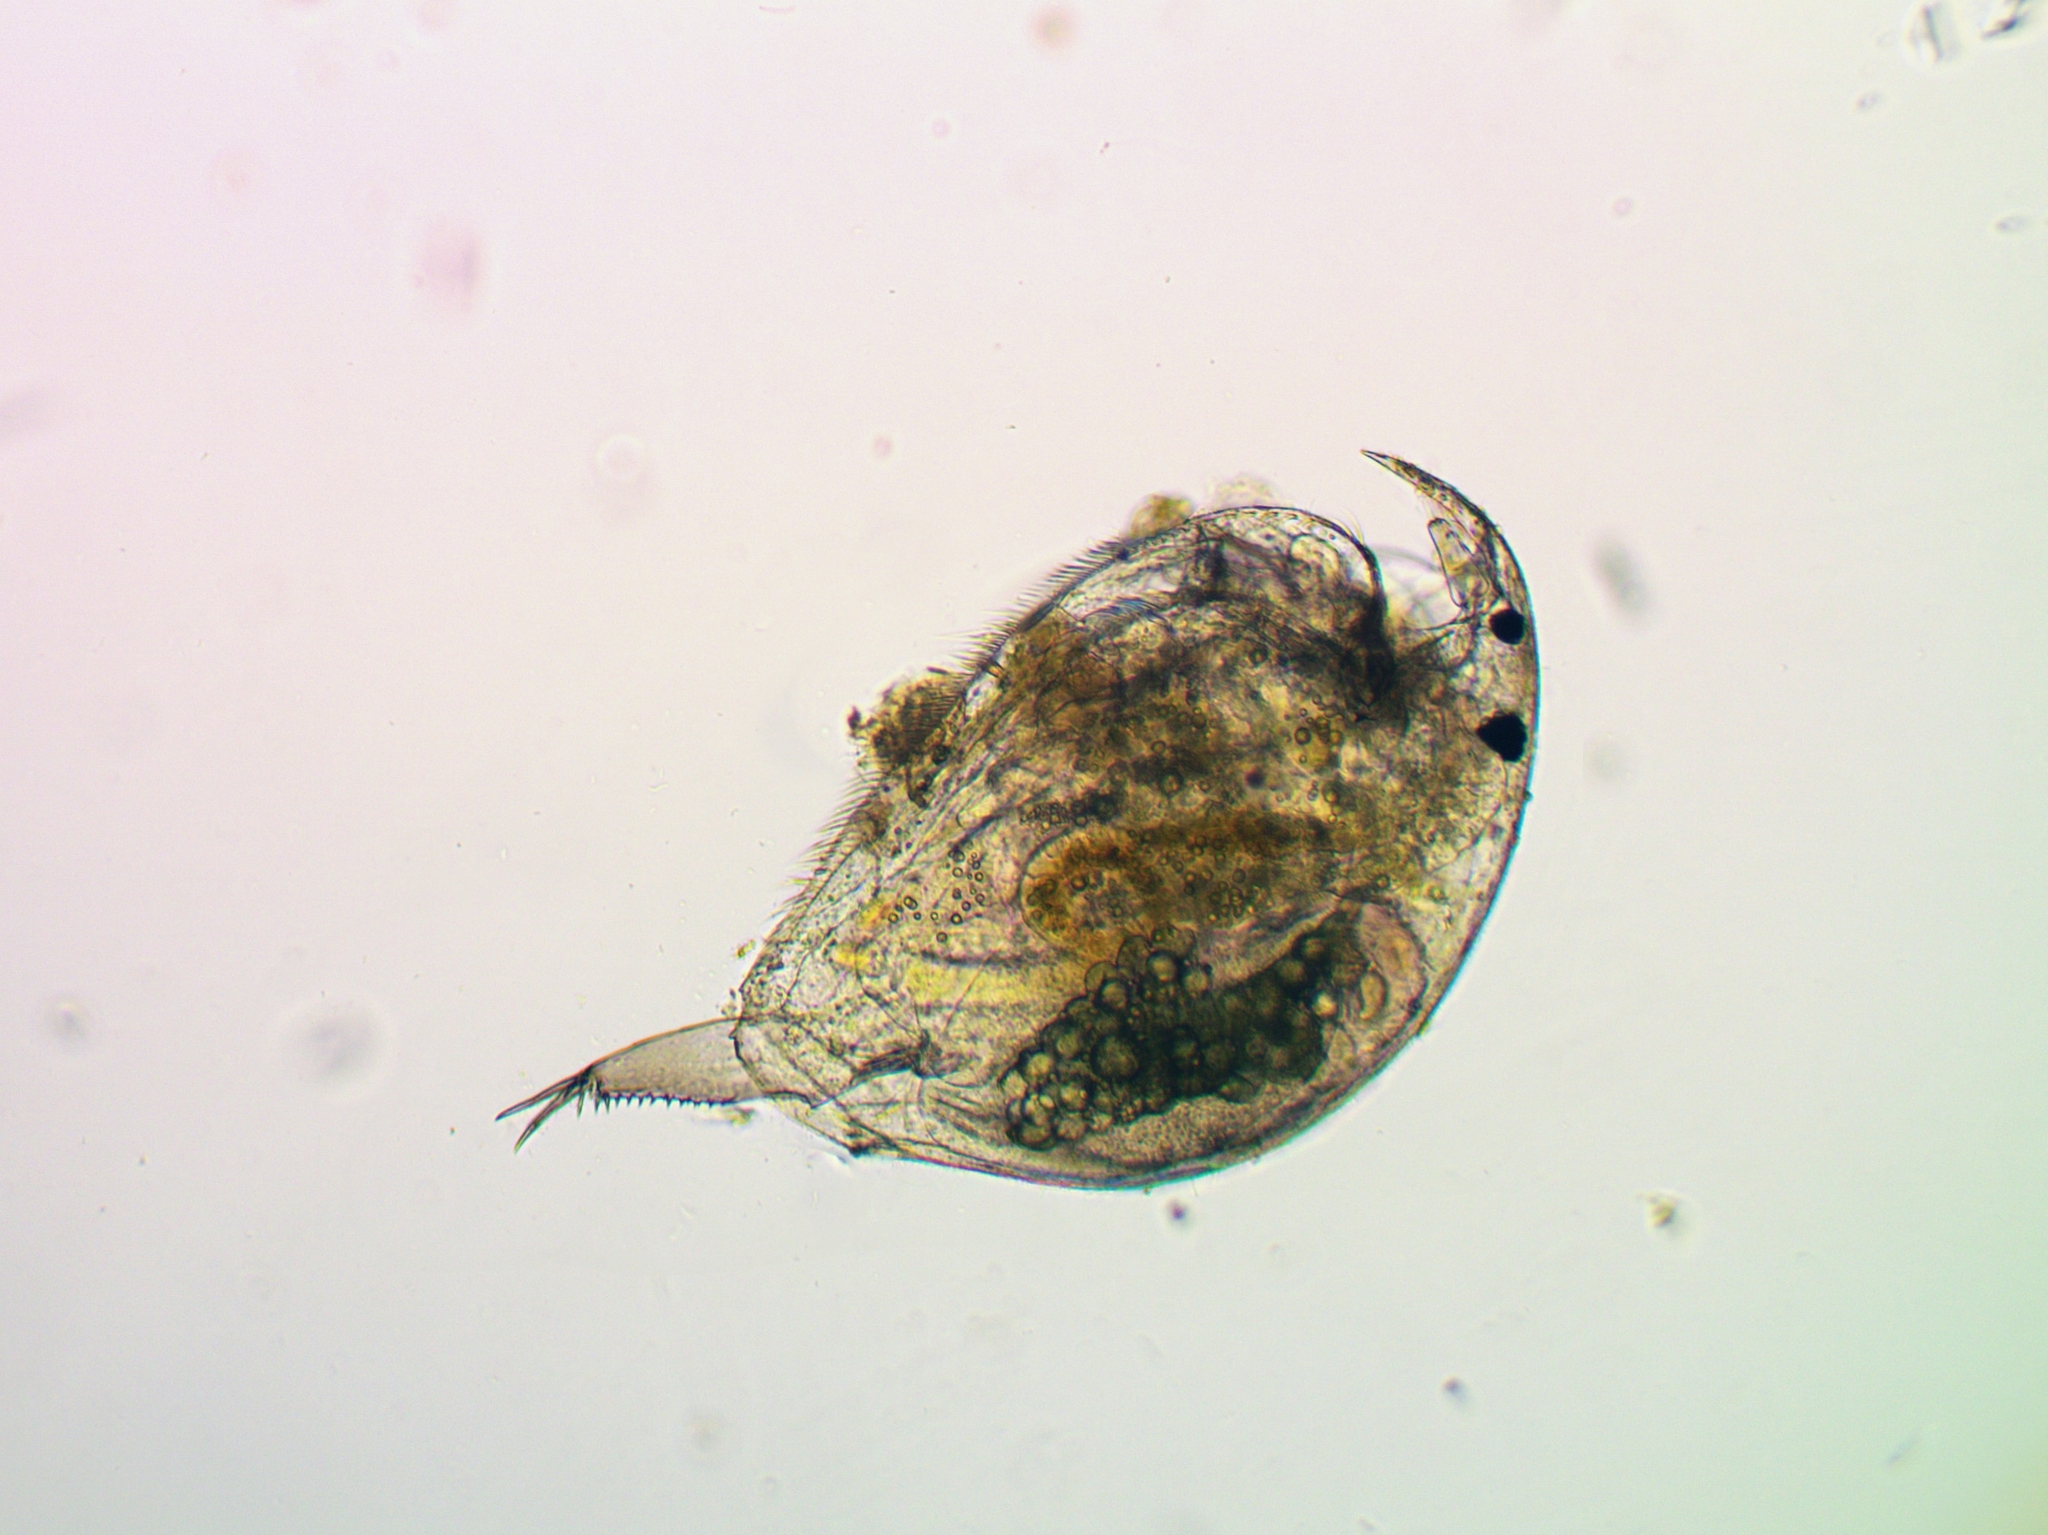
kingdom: Animalia
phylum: Arthropoda
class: Branchiopoda
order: Diplostraca
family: Chydoridae
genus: Picripleuroxus
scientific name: Picripleuroxus laevis
